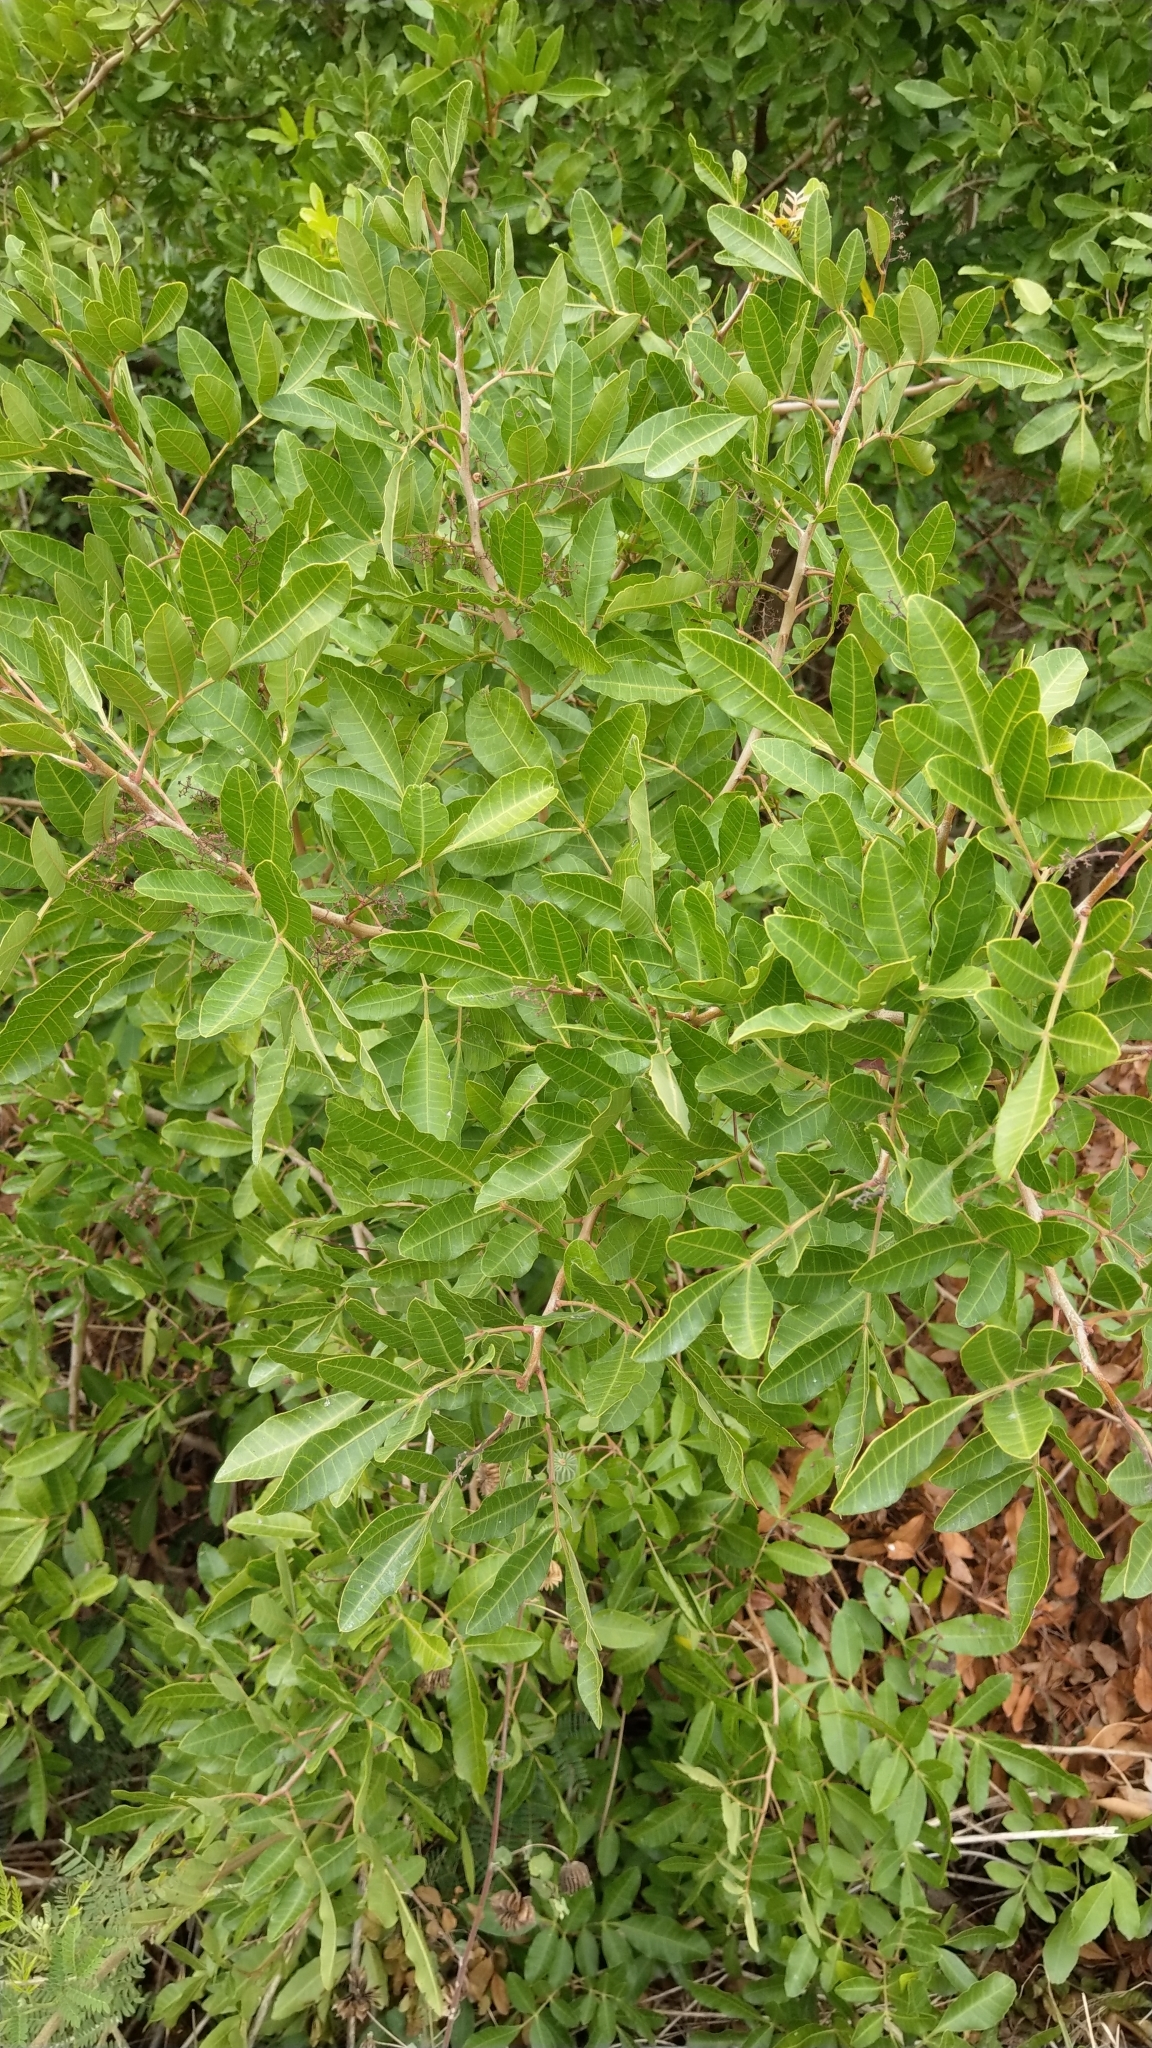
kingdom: Plantae
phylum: Tracheophyta
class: Magnoliopsida
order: Sapindales
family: Anacardiaceae
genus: Schinus
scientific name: Schinus terebinthifolia
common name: Brazilian peppertree
